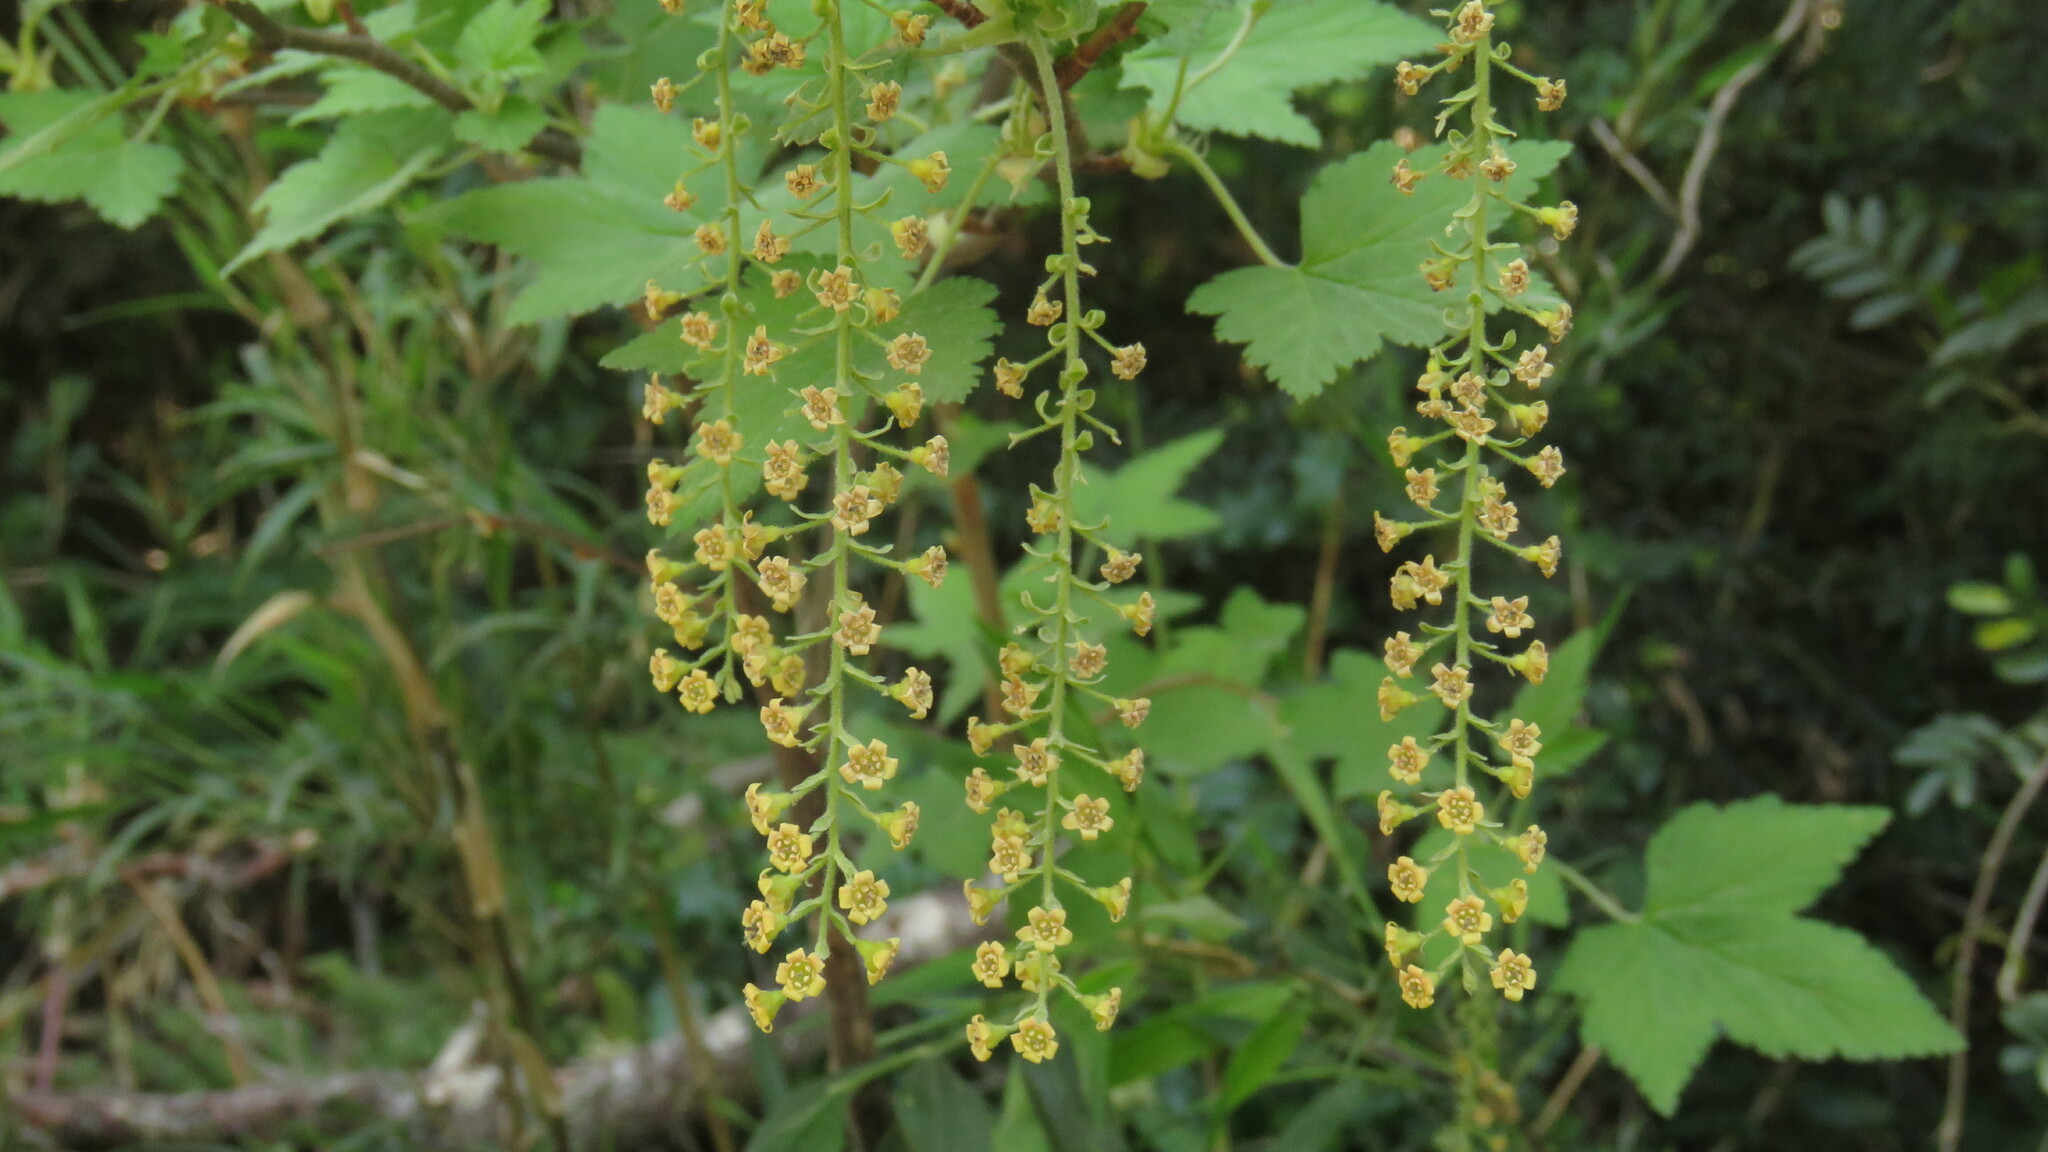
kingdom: Plantae
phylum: Tracheophyta
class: Magnoliopsida
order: Saxifragales
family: Grossulariaceae
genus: Ribes
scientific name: Ribes magellanicum
